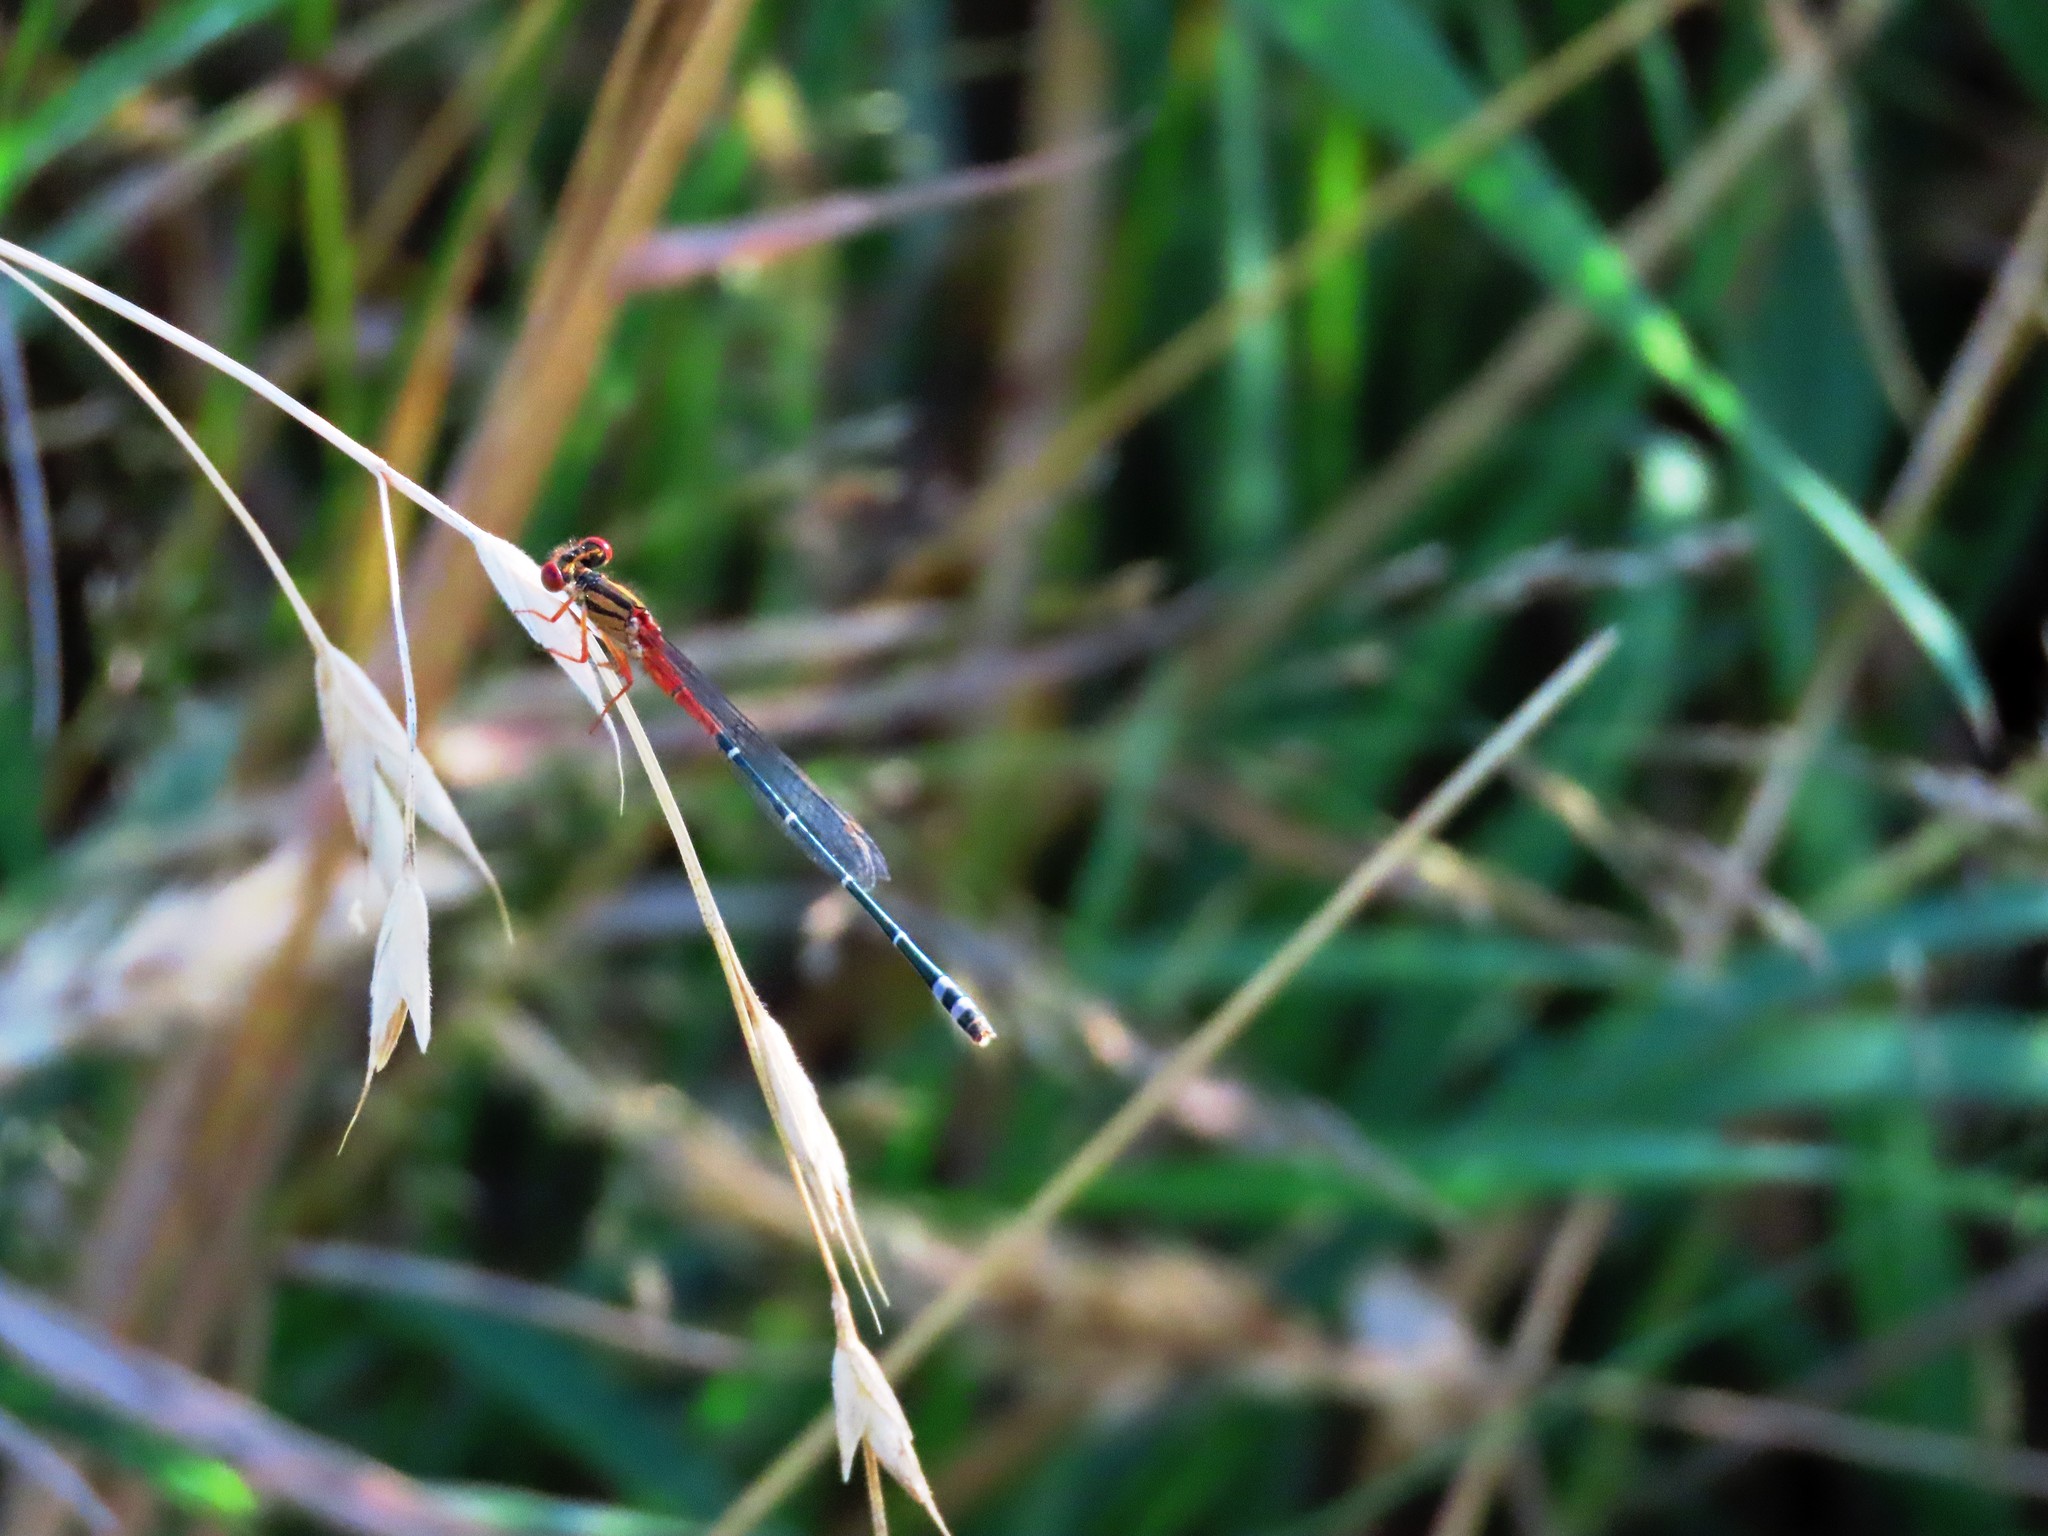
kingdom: Animalia
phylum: Arthropoda
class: Insecta
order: Odonata
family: Coenagrionidae
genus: Xanthagrion
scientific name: Xanthagrion erythroneurum
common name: Red and blue damsel
